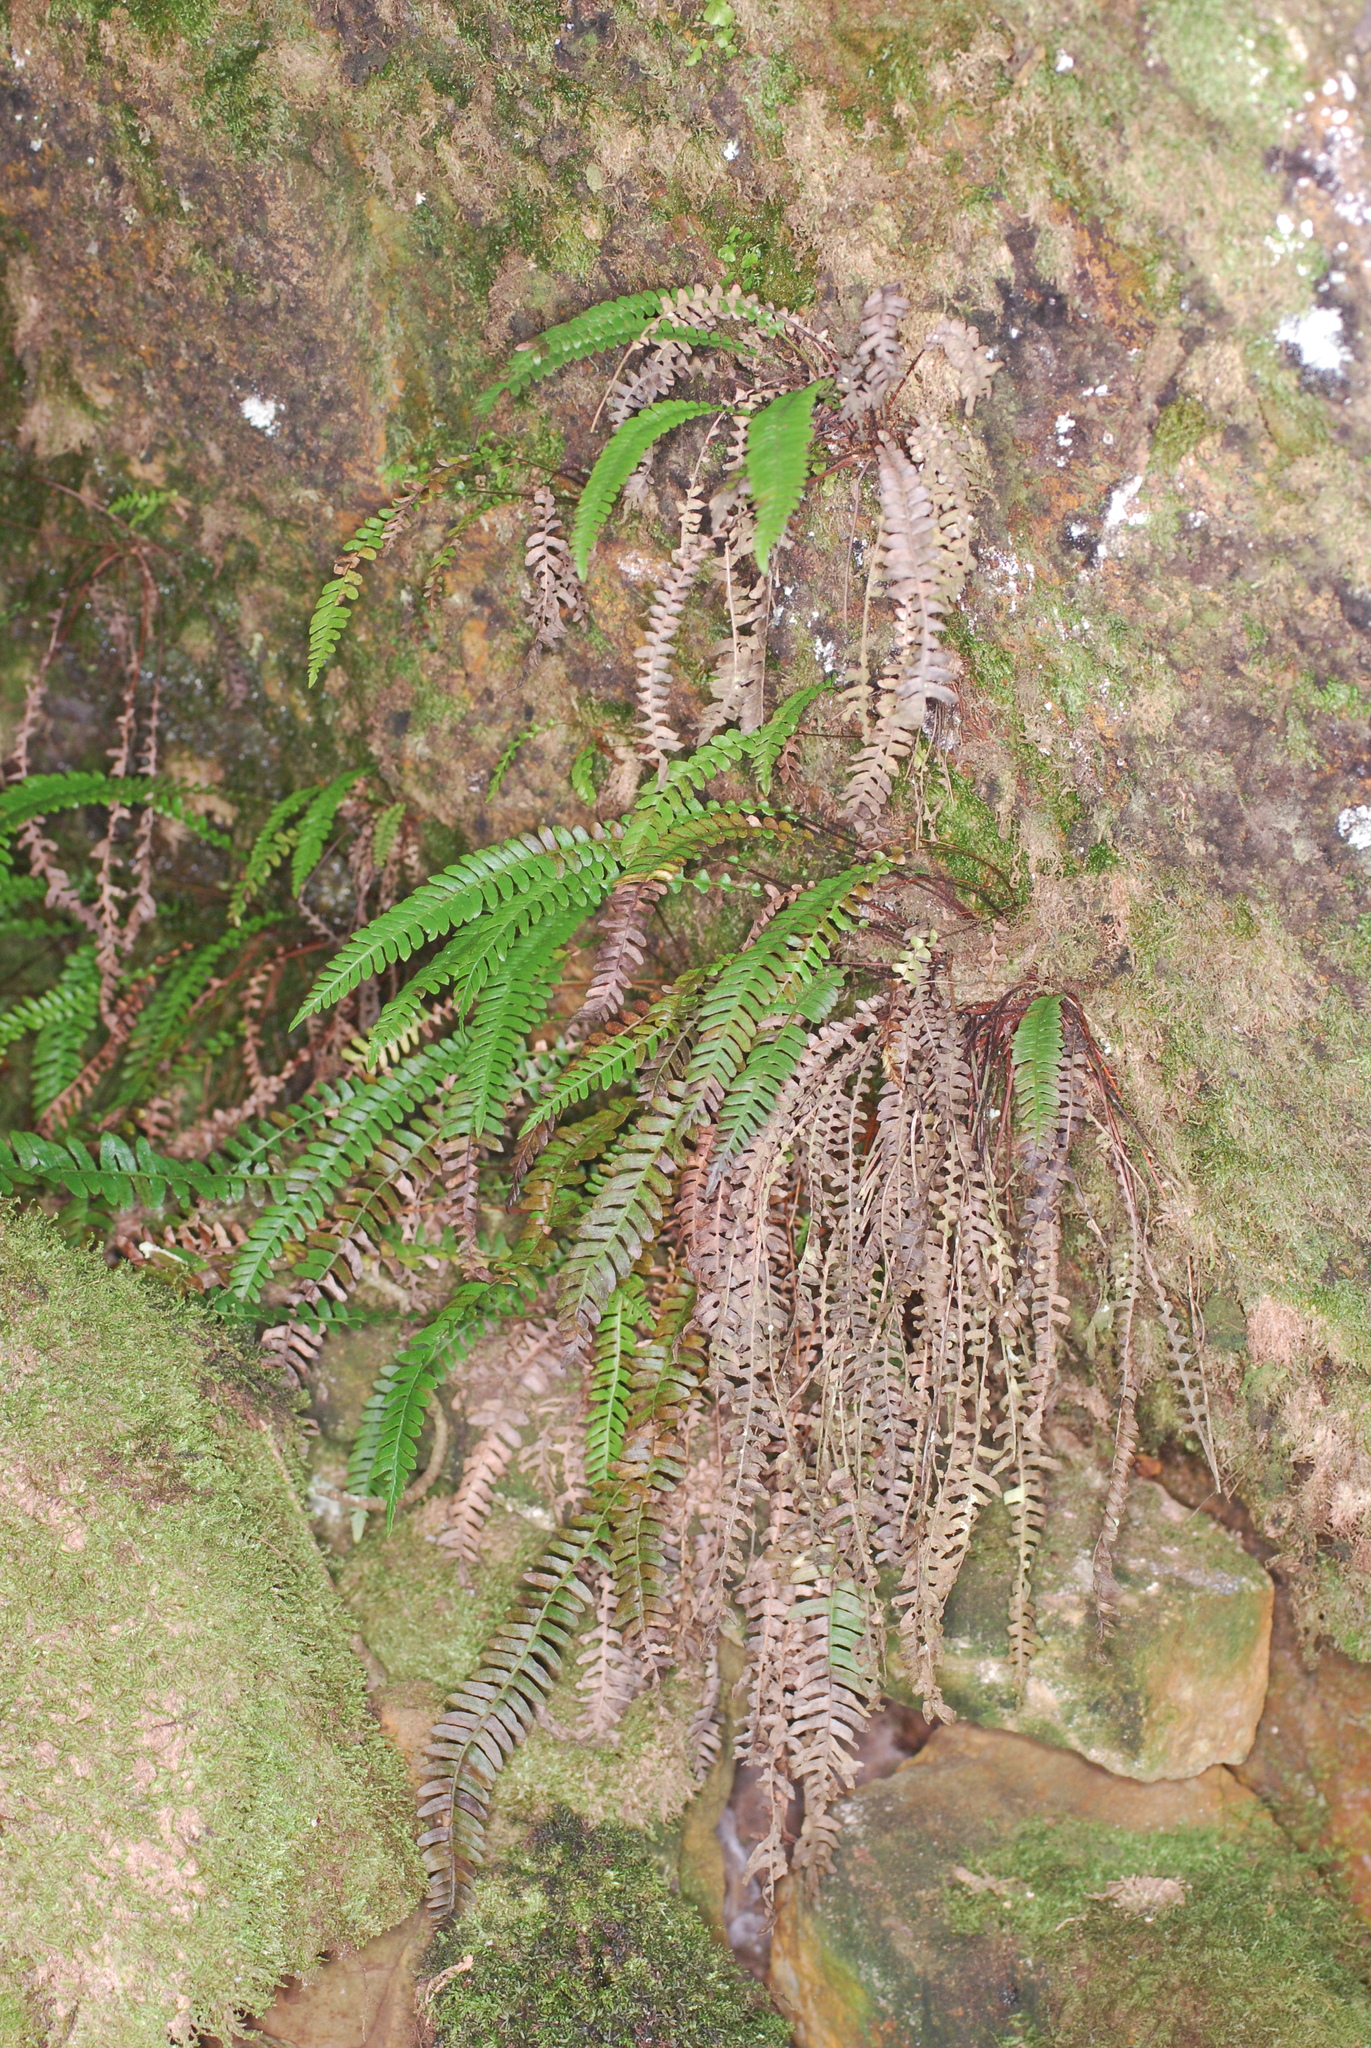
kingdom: Plantae
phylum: Tracheophyta
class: Polypodiopsida
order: Polypodiales
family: Blechnaceae
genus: Struthiopteris
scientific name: Struthiopteris spicant
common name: Deer fern
